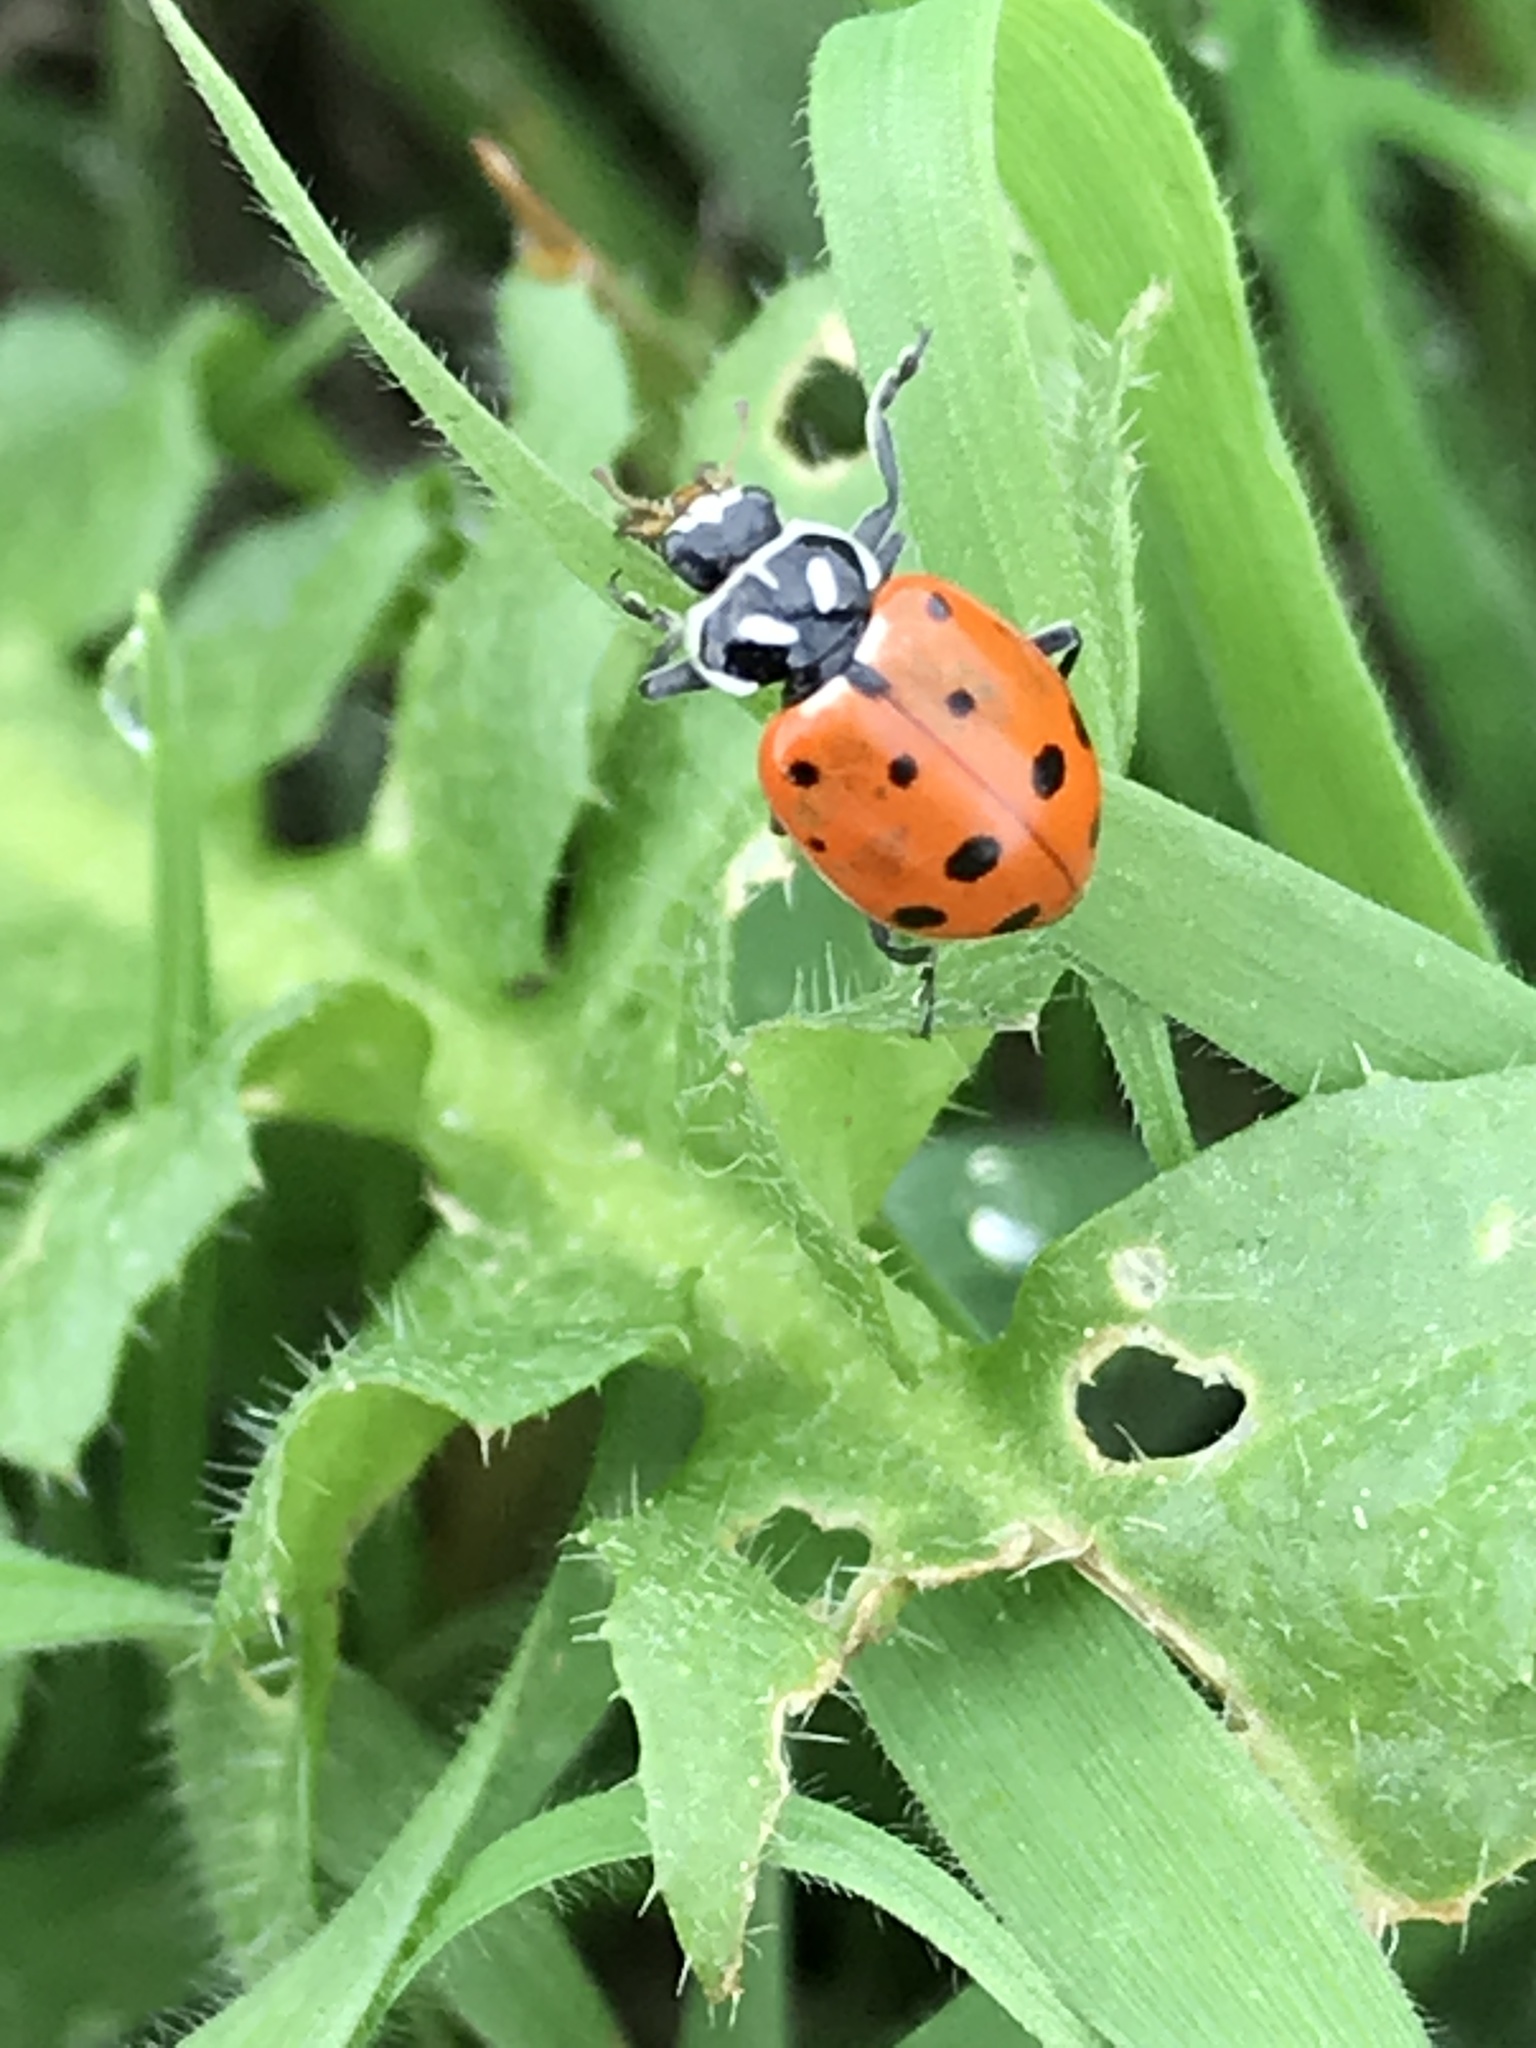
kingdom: Animalia
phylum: Arthropoda
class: Insecta
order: Coleoptera
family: Coccinellidae
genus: Hippodamia
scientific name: Hippodamia convergens
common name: Convergent lady beetle
